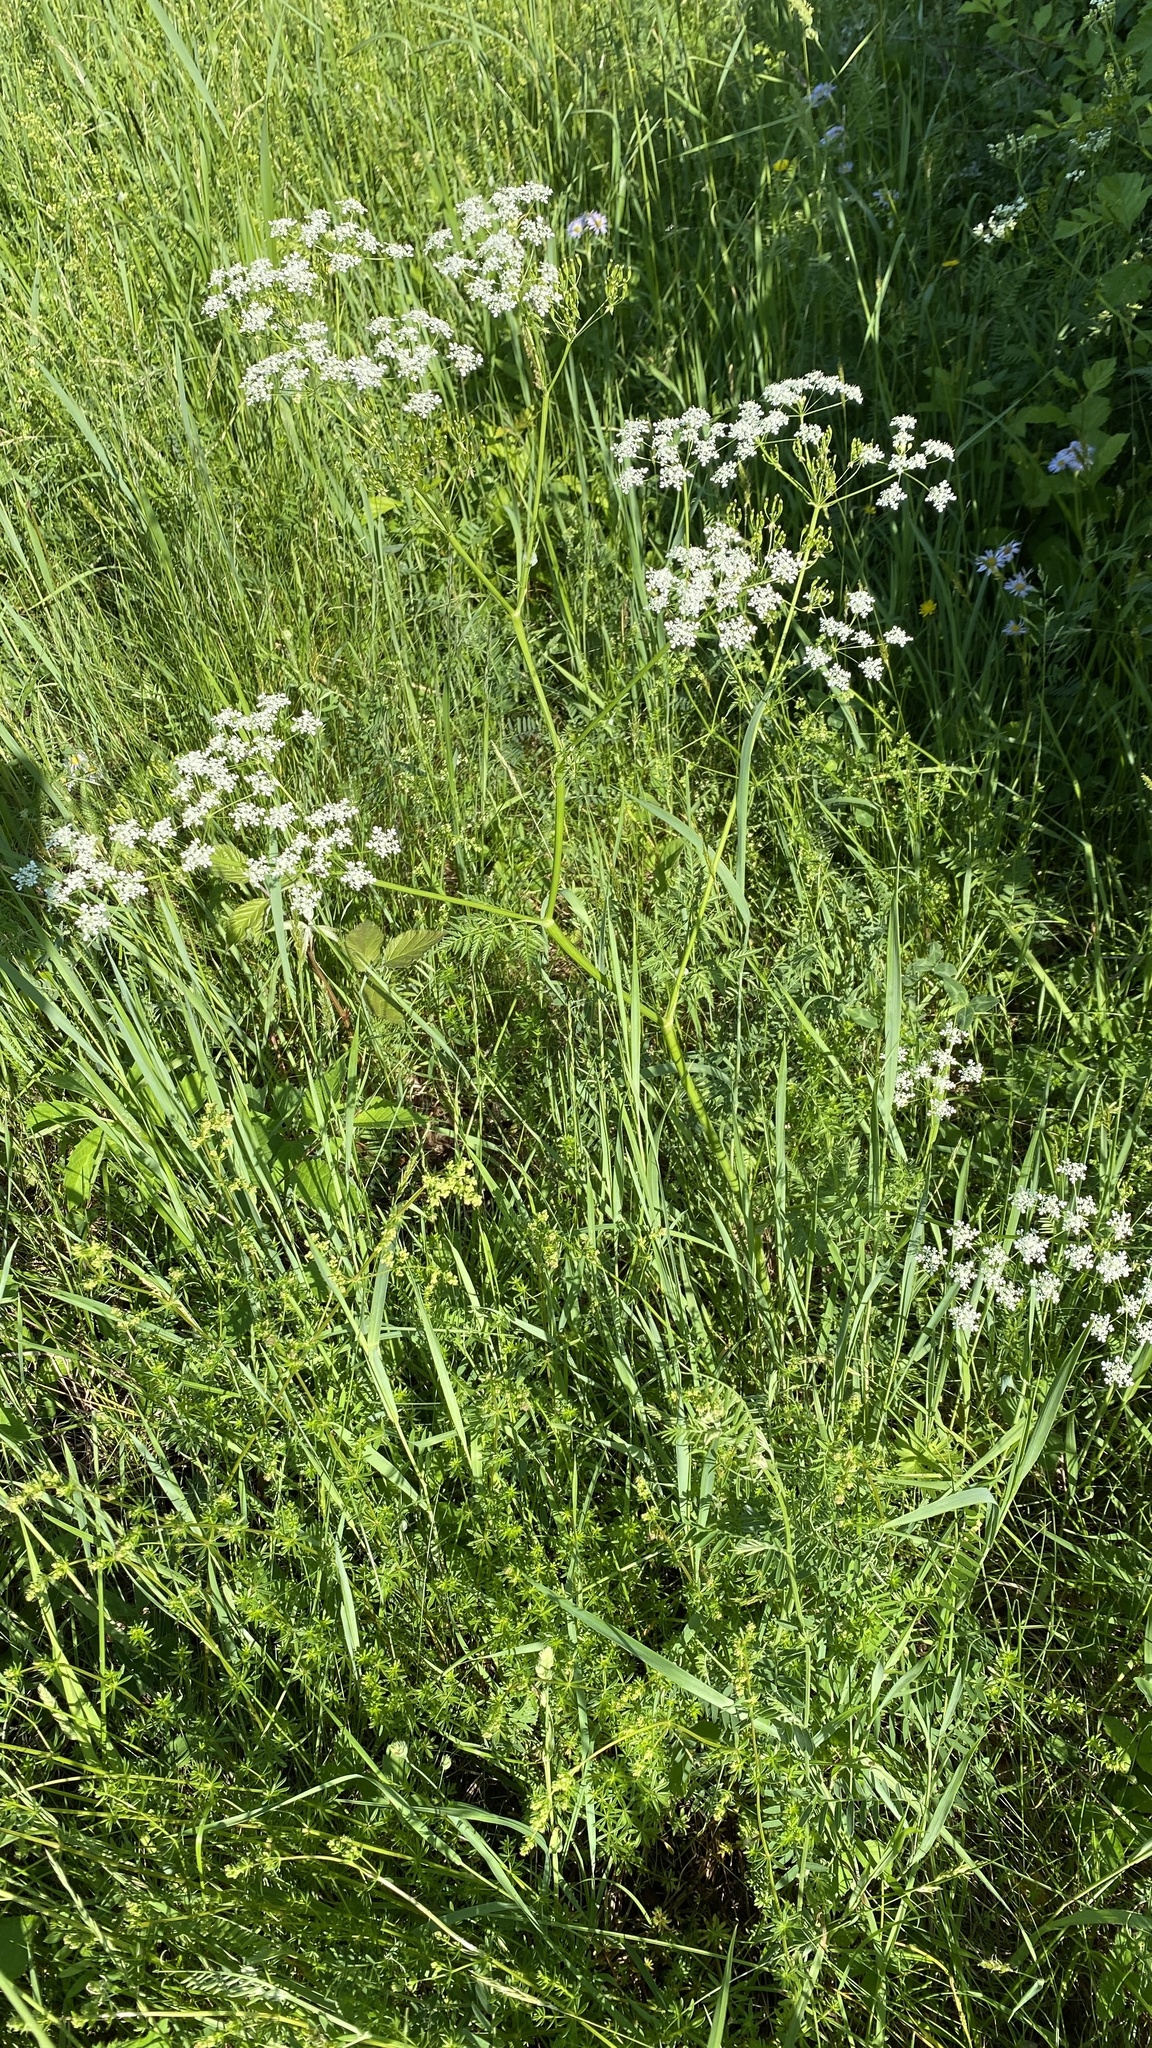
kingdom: Plantae
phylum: Tracheophyta
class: Magnoliopsida
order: Apiales
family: Apiaceae
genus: Anthriscus
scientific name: Anthriscus sylvestris
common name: Cow parsley
